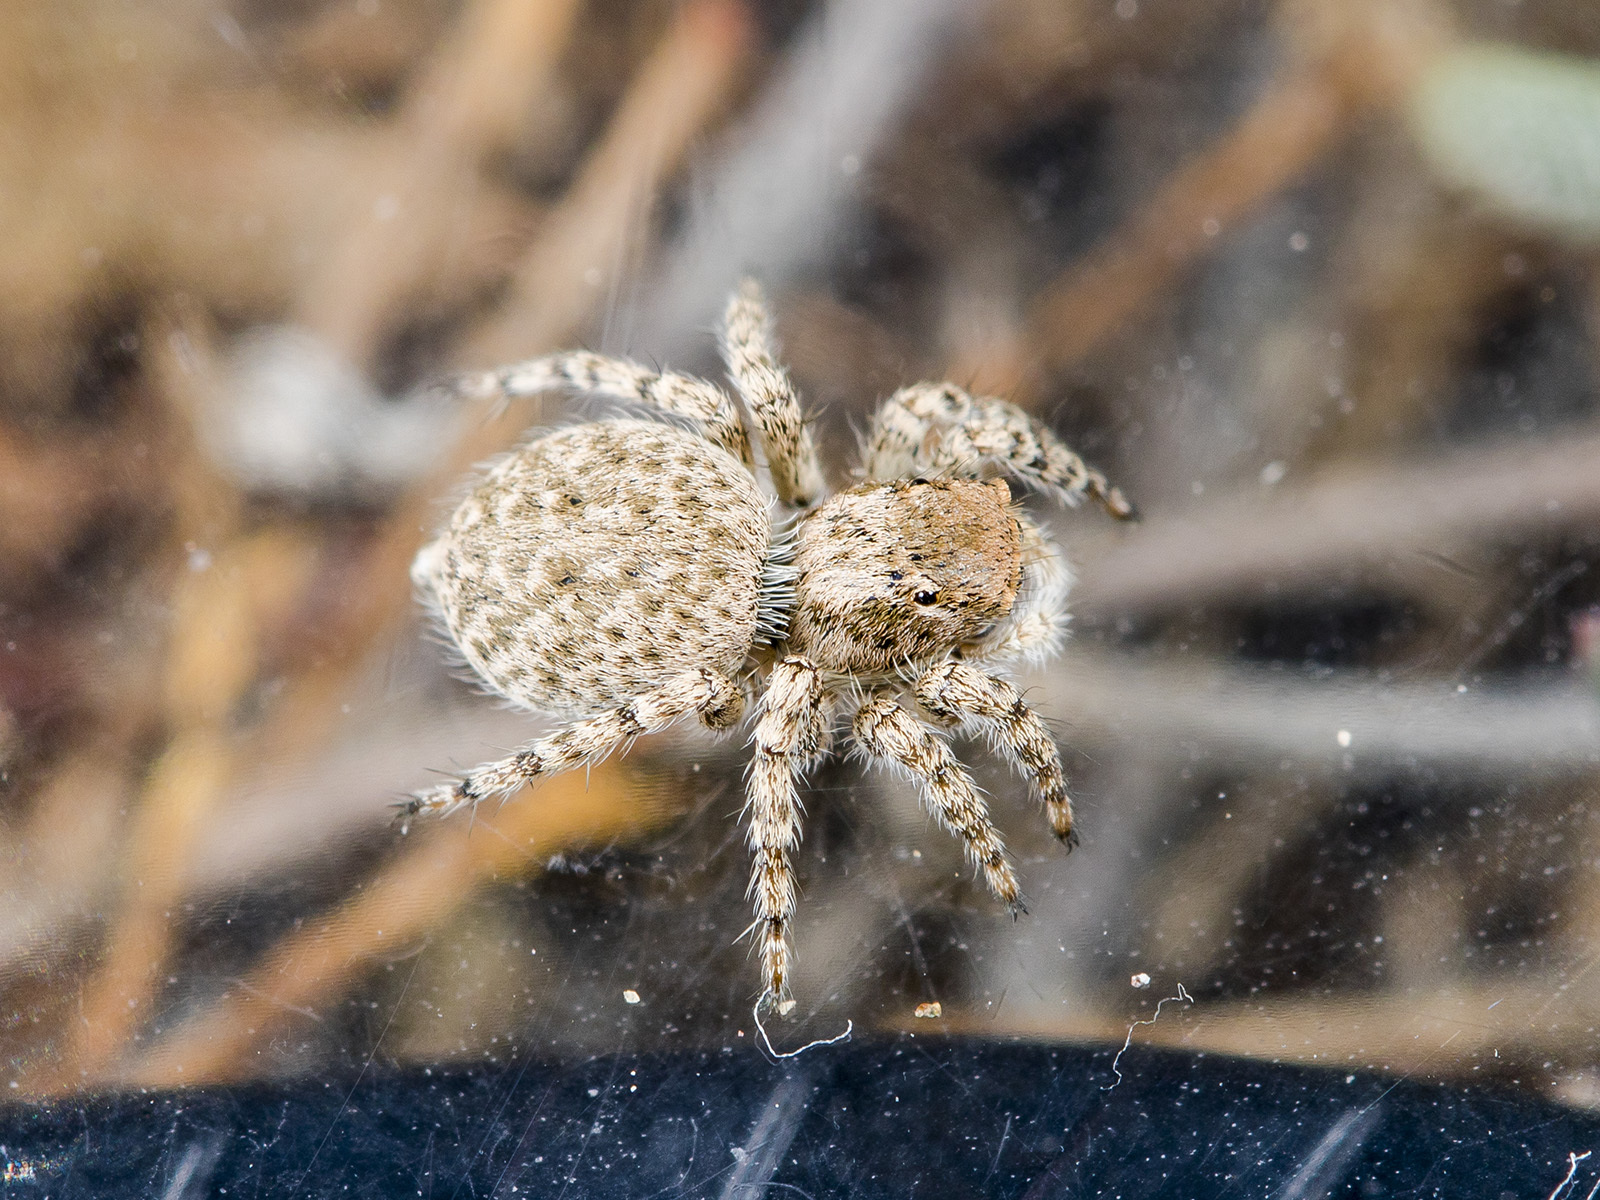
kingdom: Animalia
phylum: Arthropoda
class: Arachnida
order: Araneae
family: Salticidae
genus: Aelurillus
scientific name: Aelurillus andreevae
